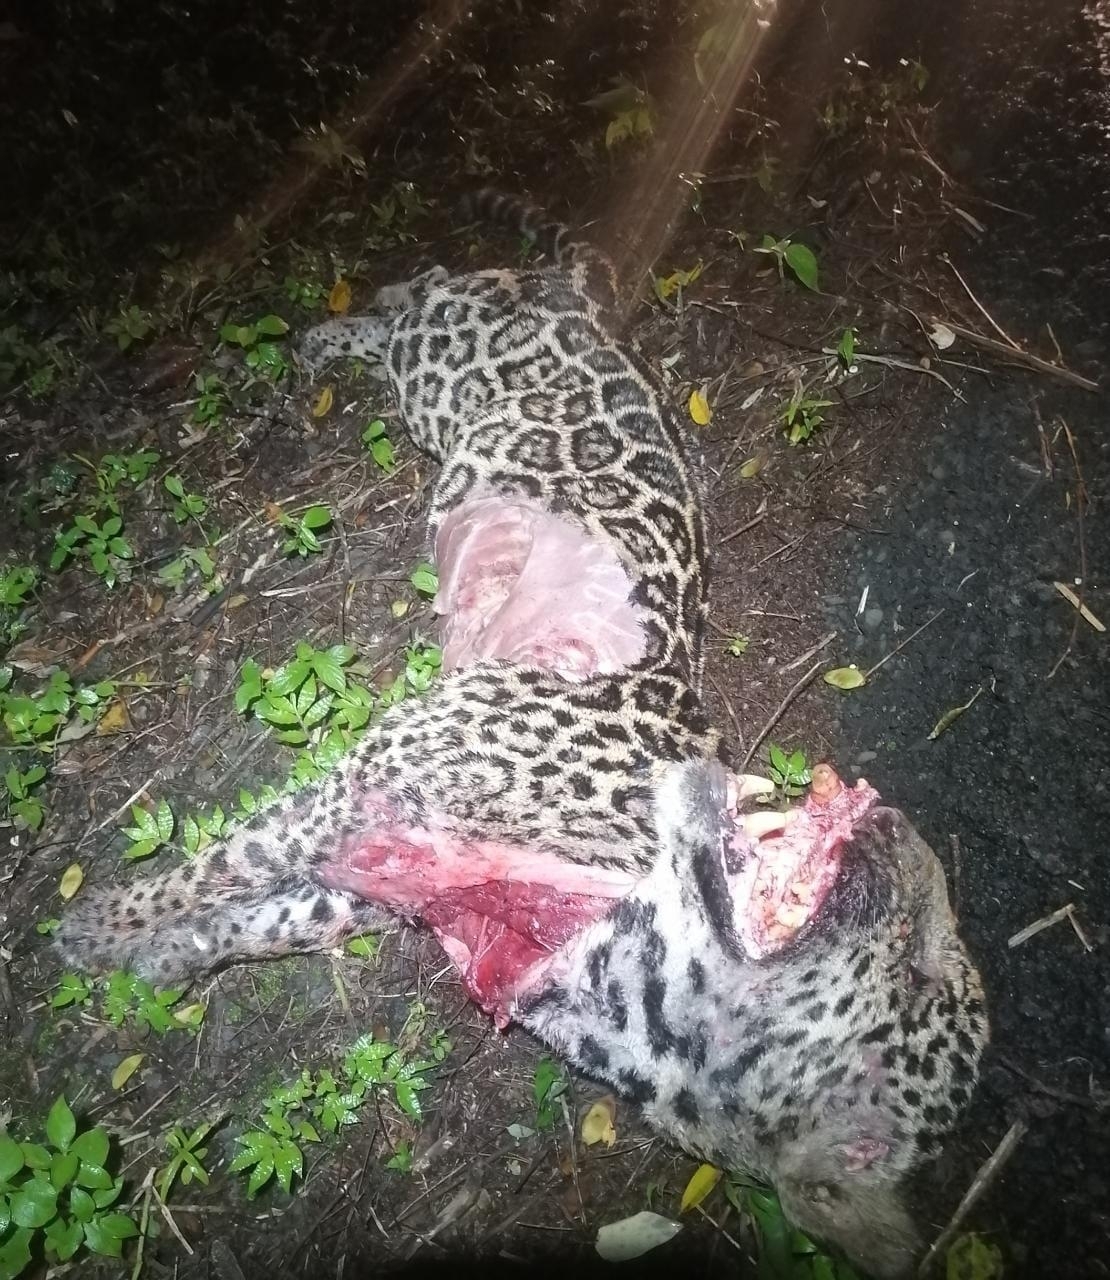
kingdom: Animalia
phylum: Chordata
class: Mammalia
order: Carnivora
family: Felidae
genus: Panthera
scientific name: Panthera onca
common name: Jaguar
